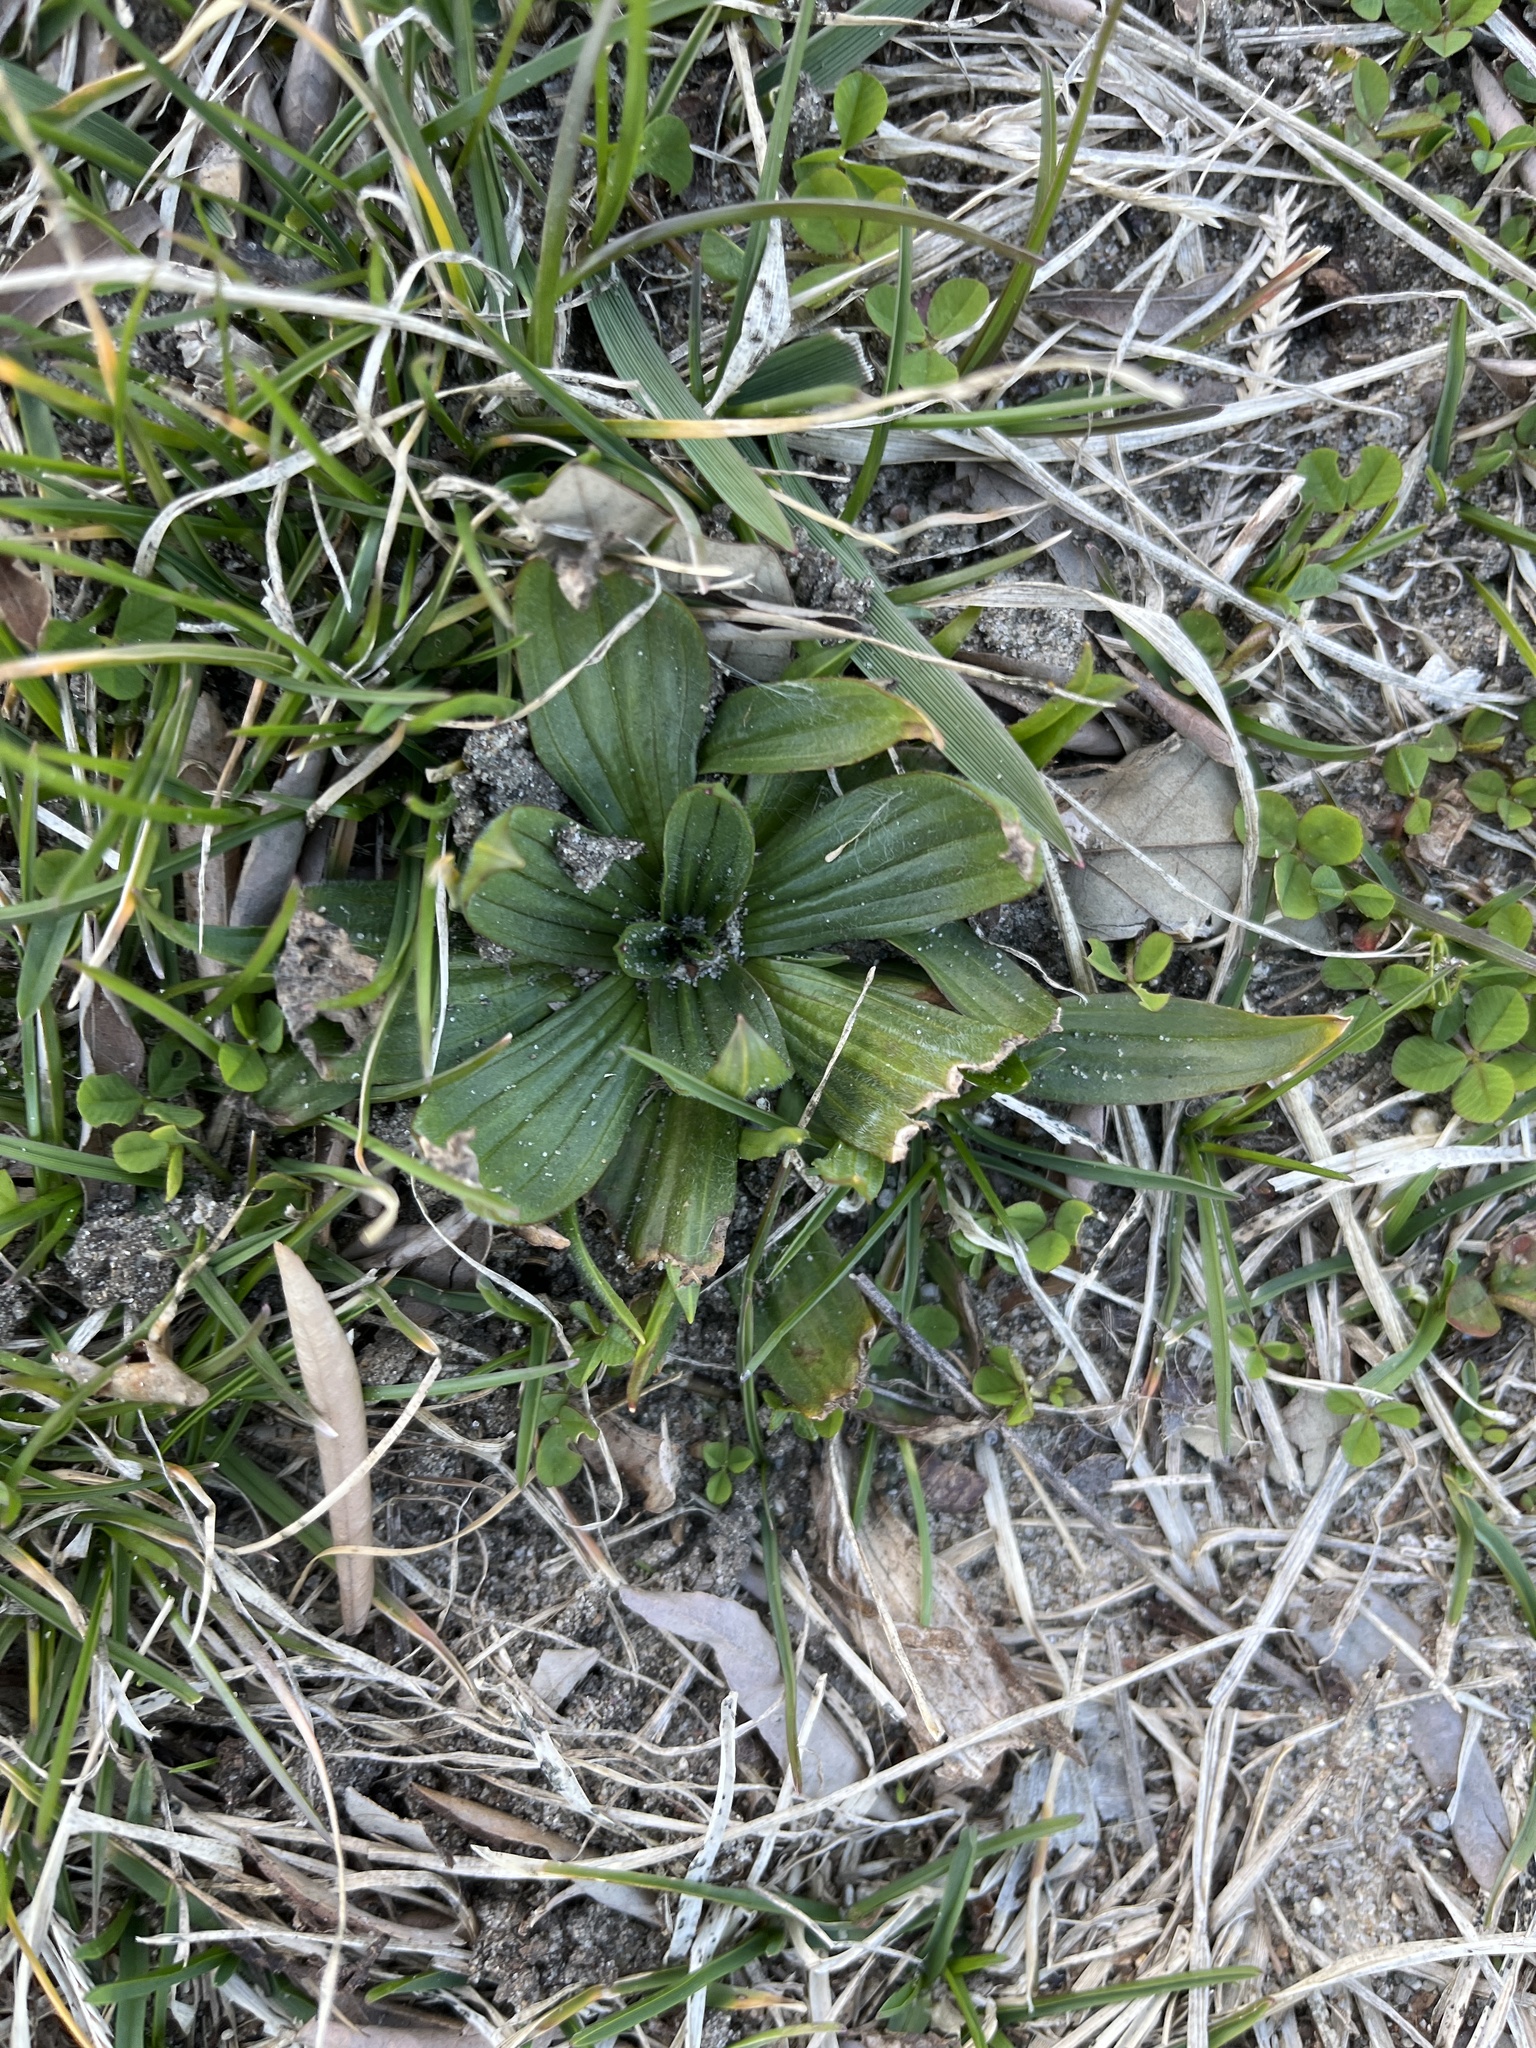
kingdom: Plantae
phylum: Tracheophyta
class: Magnoliopsida
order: Lamiales
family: Plantaginaceae
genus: Plantago
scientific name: Plantago lanceolata
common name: Ribwort plantain
